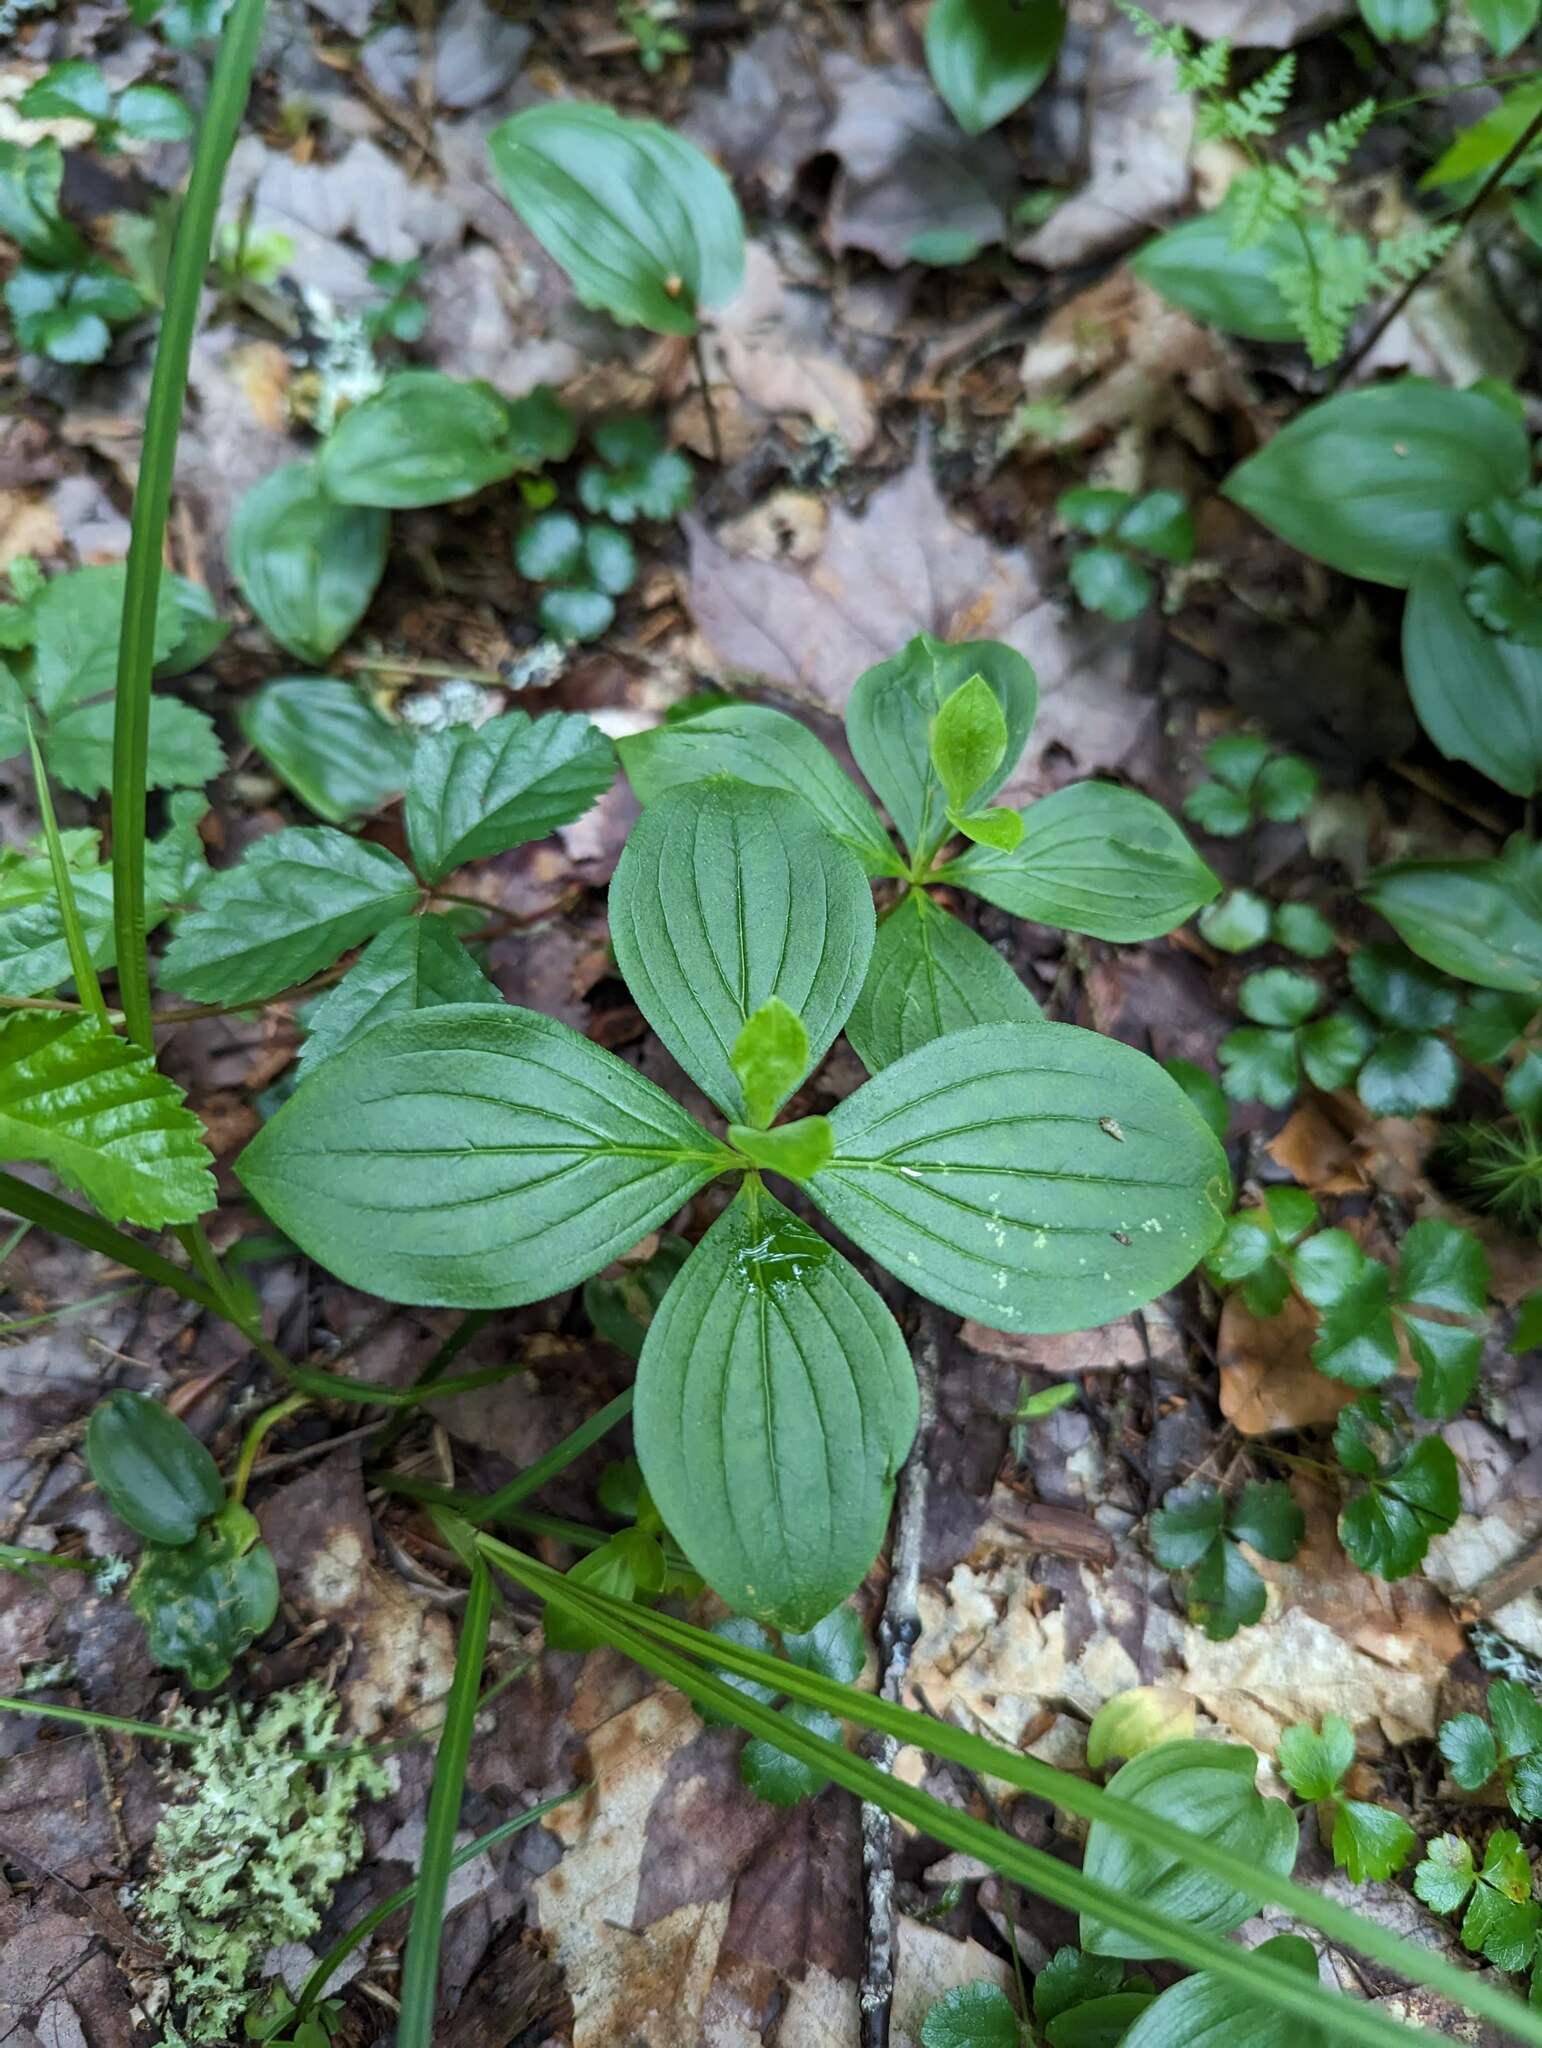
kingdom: Plantae
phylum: Tracheophyta
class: Magnoliopsida
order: Cornales
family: Cornaceae
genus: Cornus
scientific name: Cornus canadensis
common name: Creeping dogwood
